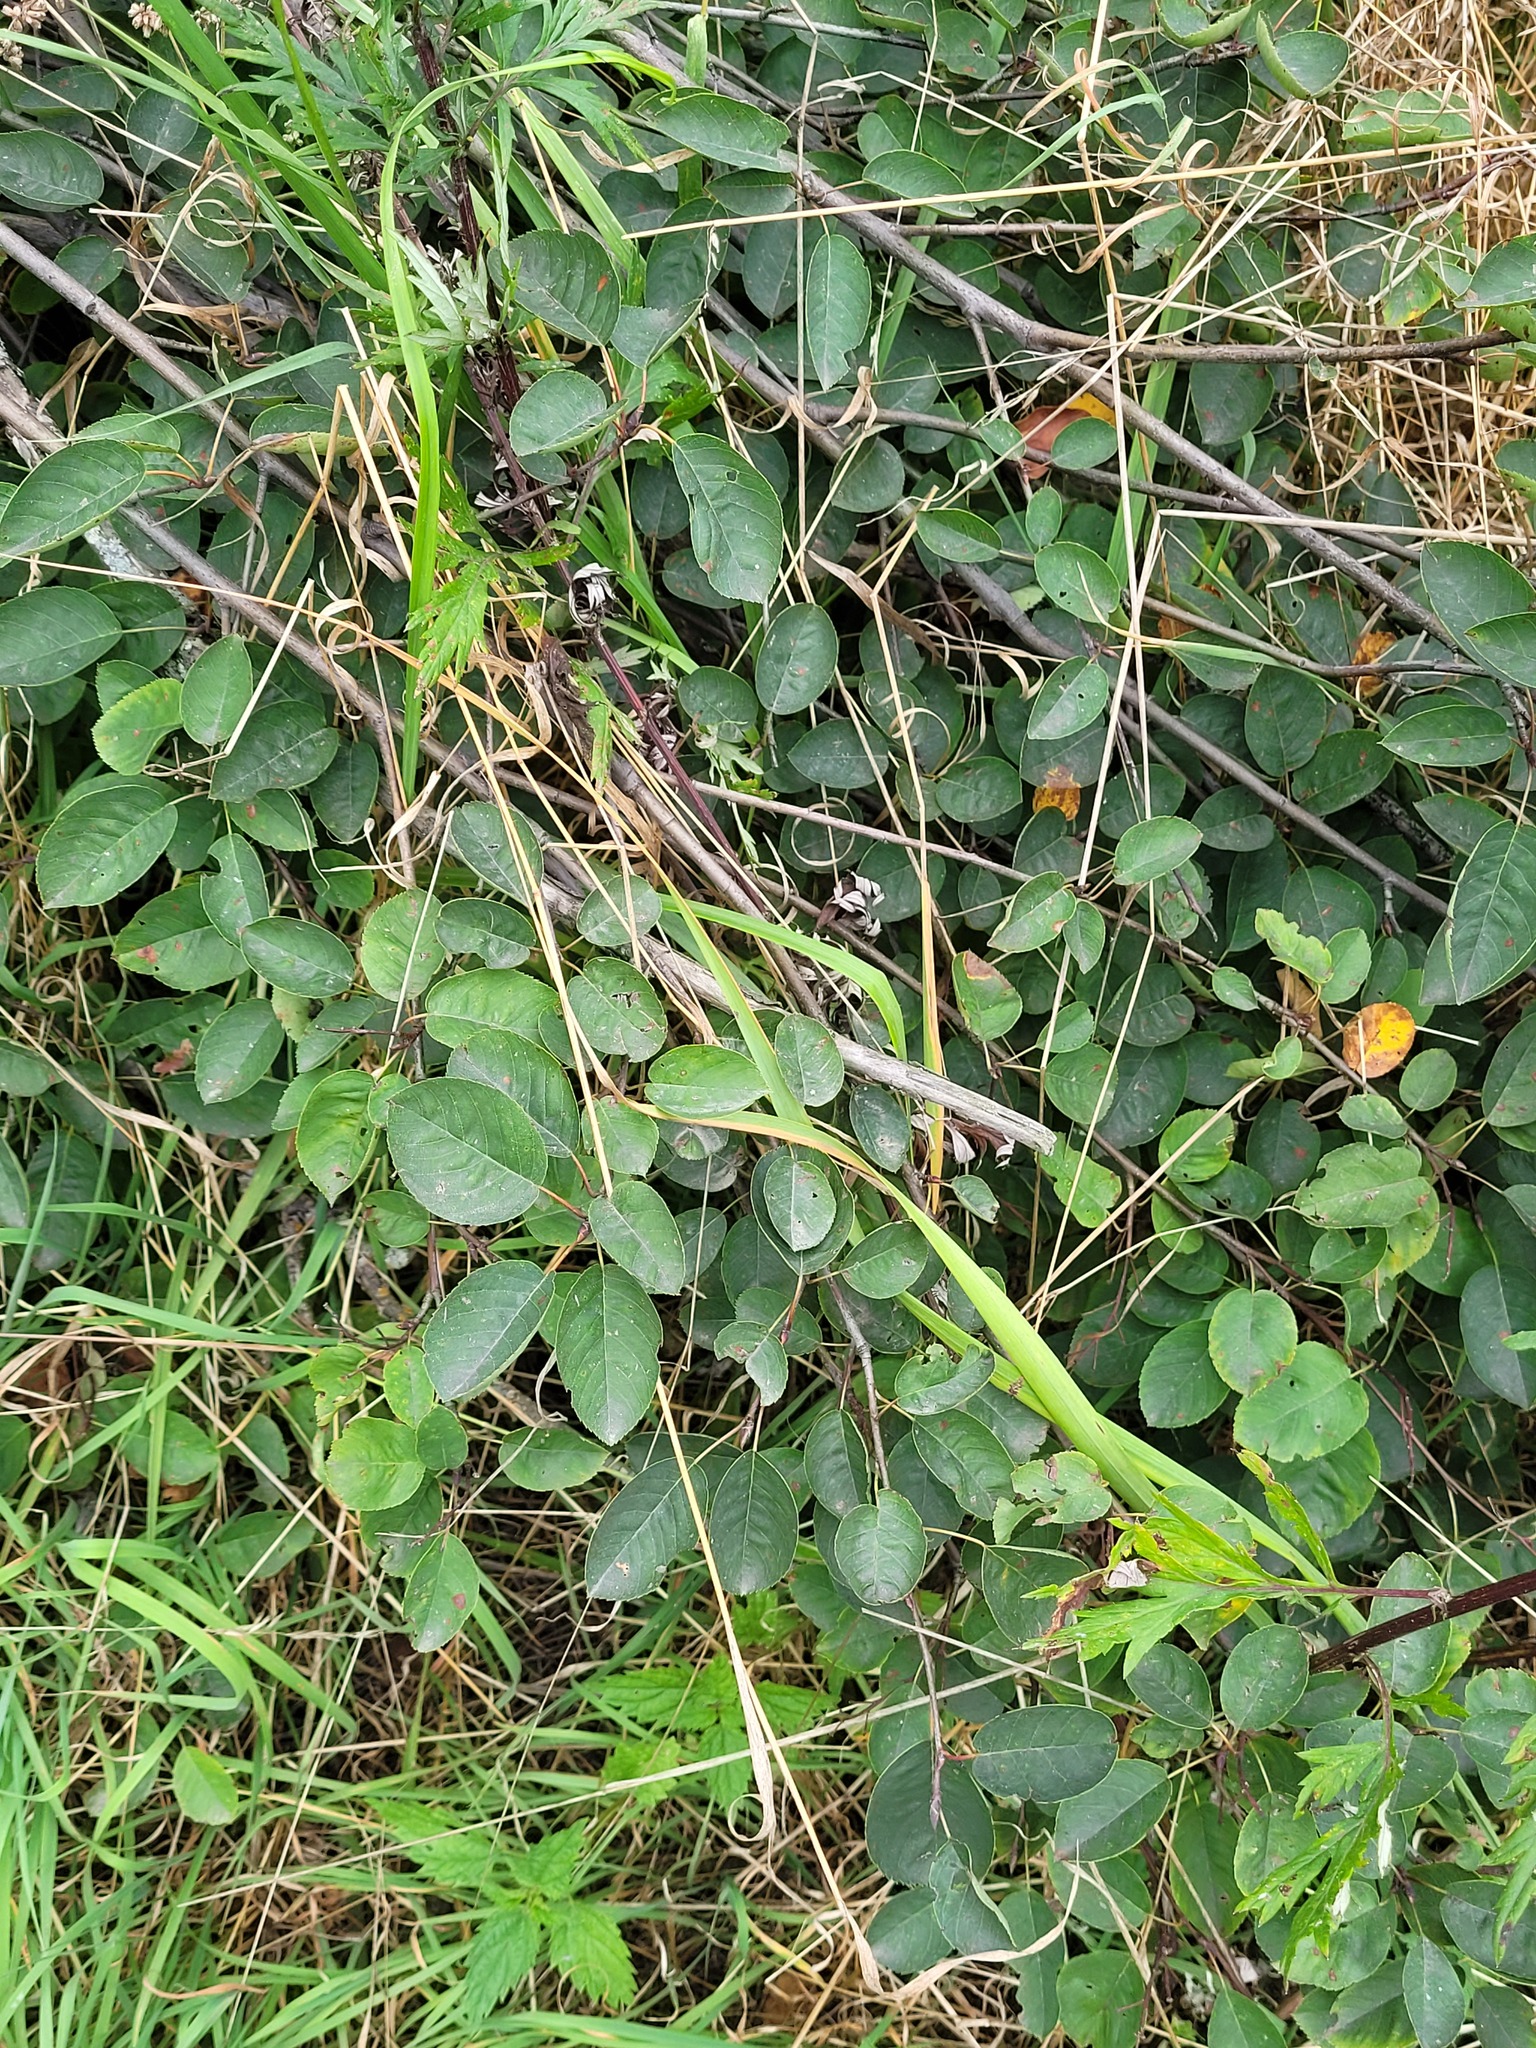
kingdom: Plantae
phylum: Tracheophyta
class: Magnoliopsida
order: Rosales
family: Rosaceae
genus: Amelanchier
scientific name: Amelanchier
